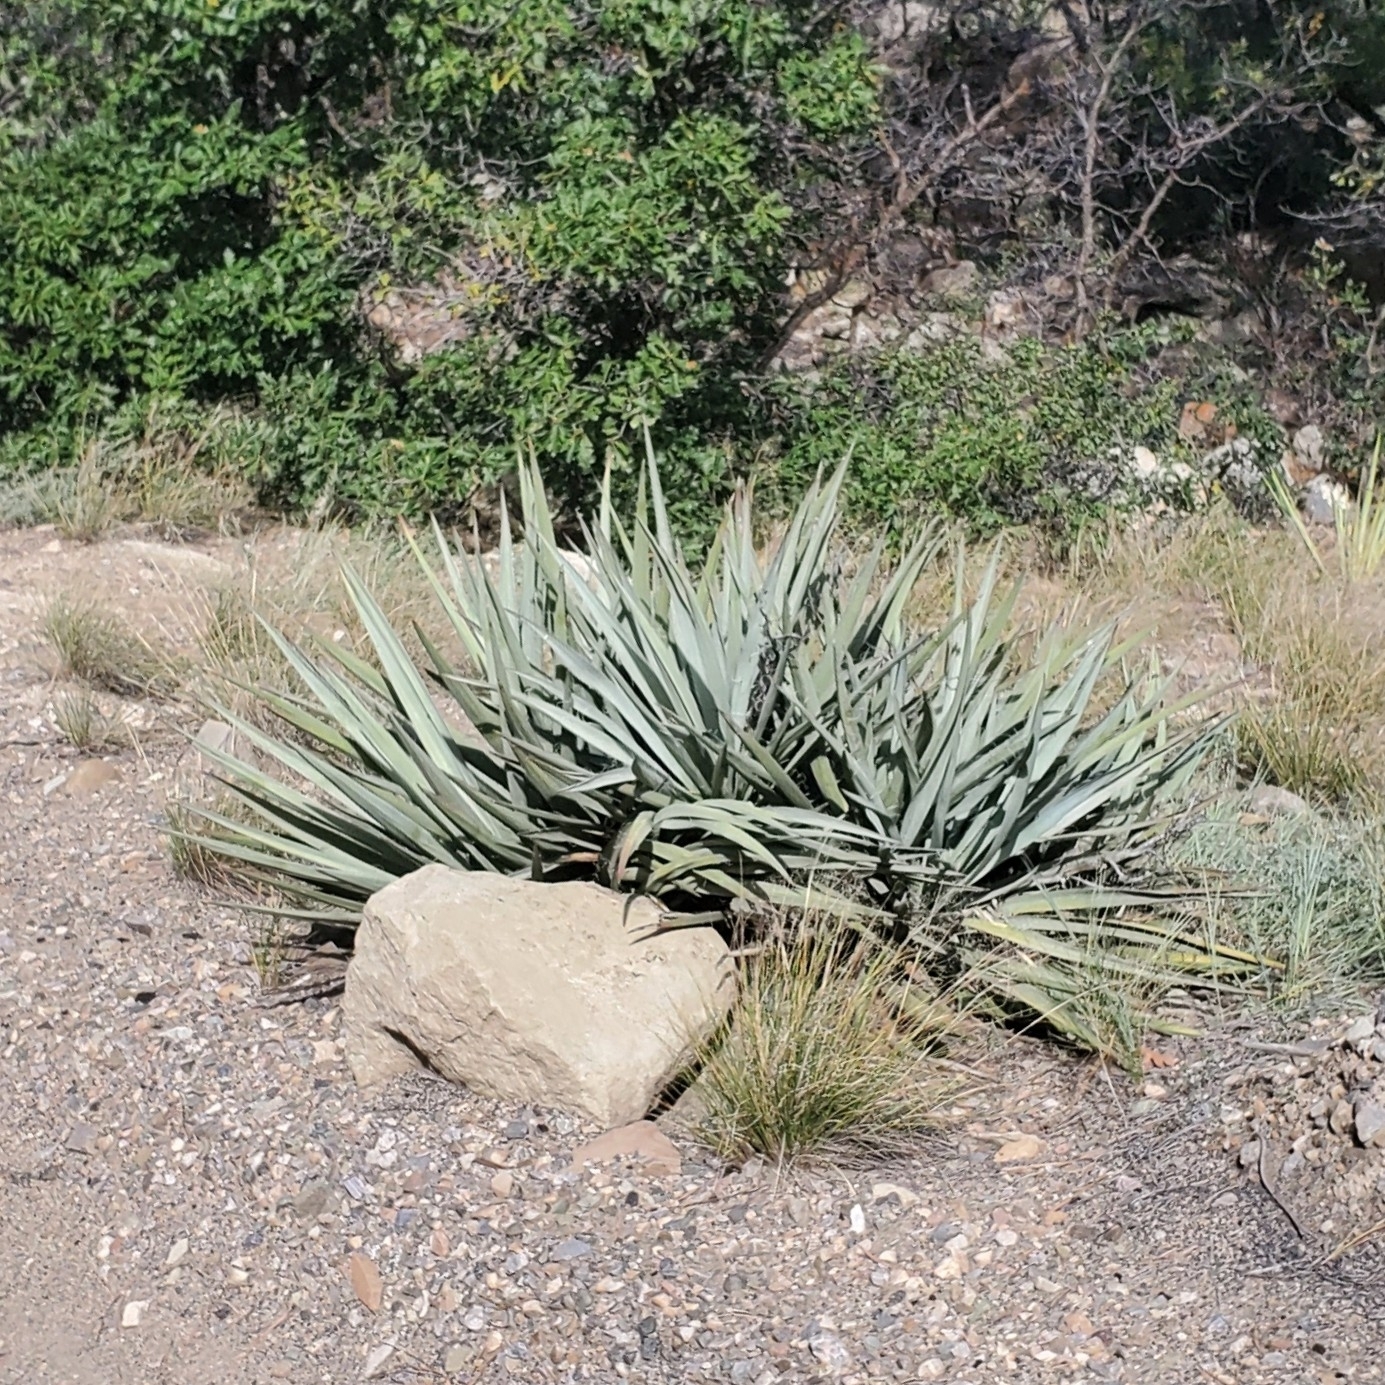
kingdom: Plantae
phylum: Tracheophyta
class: Liliopsida
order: Asparagales
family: Asparagaceae
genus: Yucca
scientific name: Yucca baccata
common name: Banana yucca
